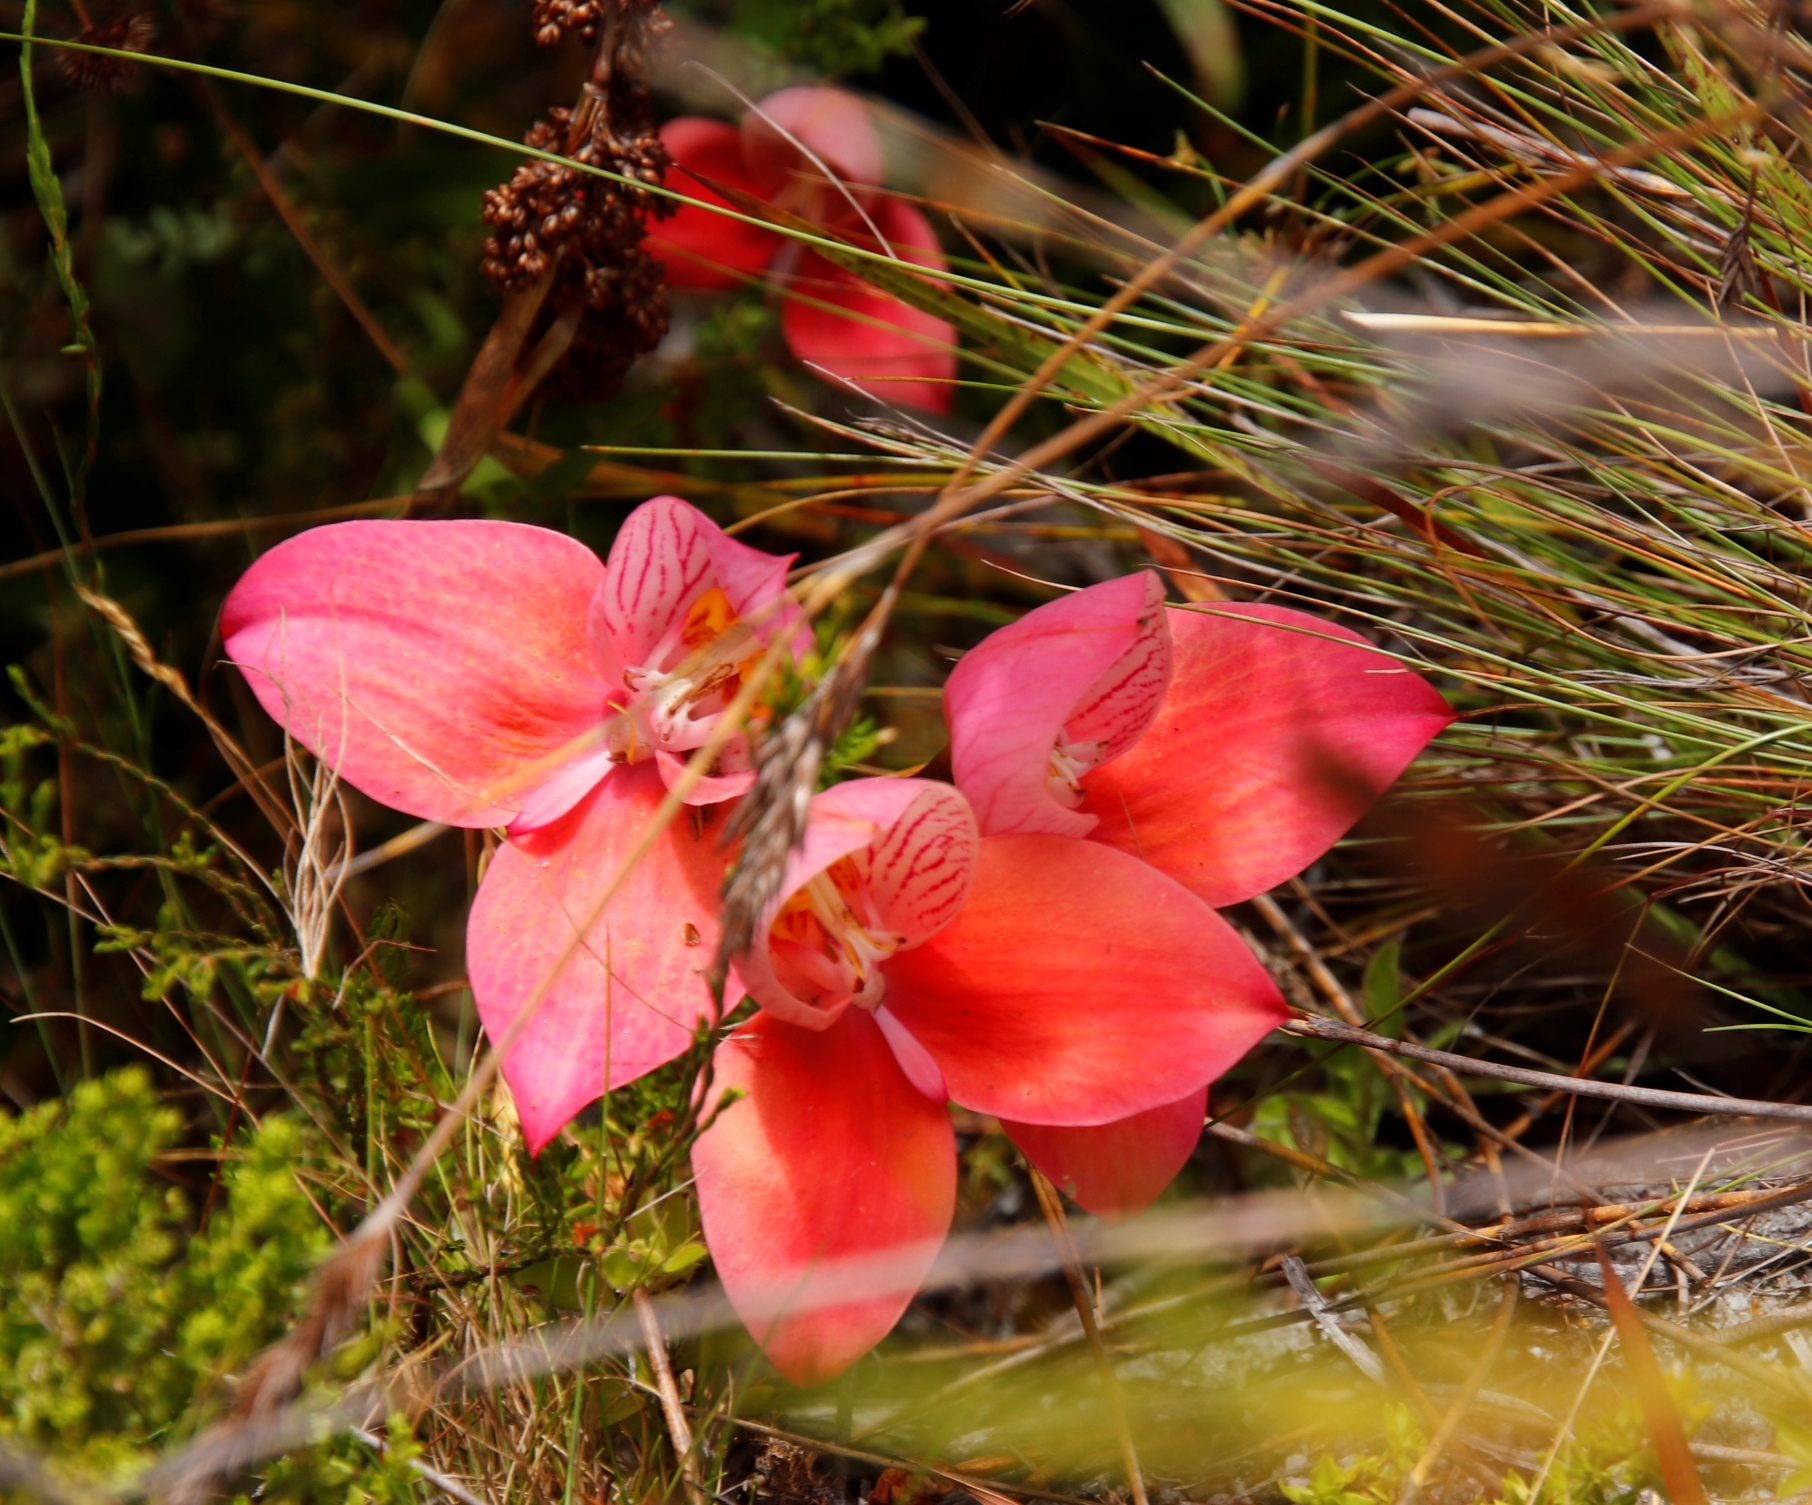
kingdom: Plantae
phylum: Tracheophyta
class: Liliopsida
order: Asparagales
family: Orchidaceae
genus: Disa
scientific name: Disa uniflora
